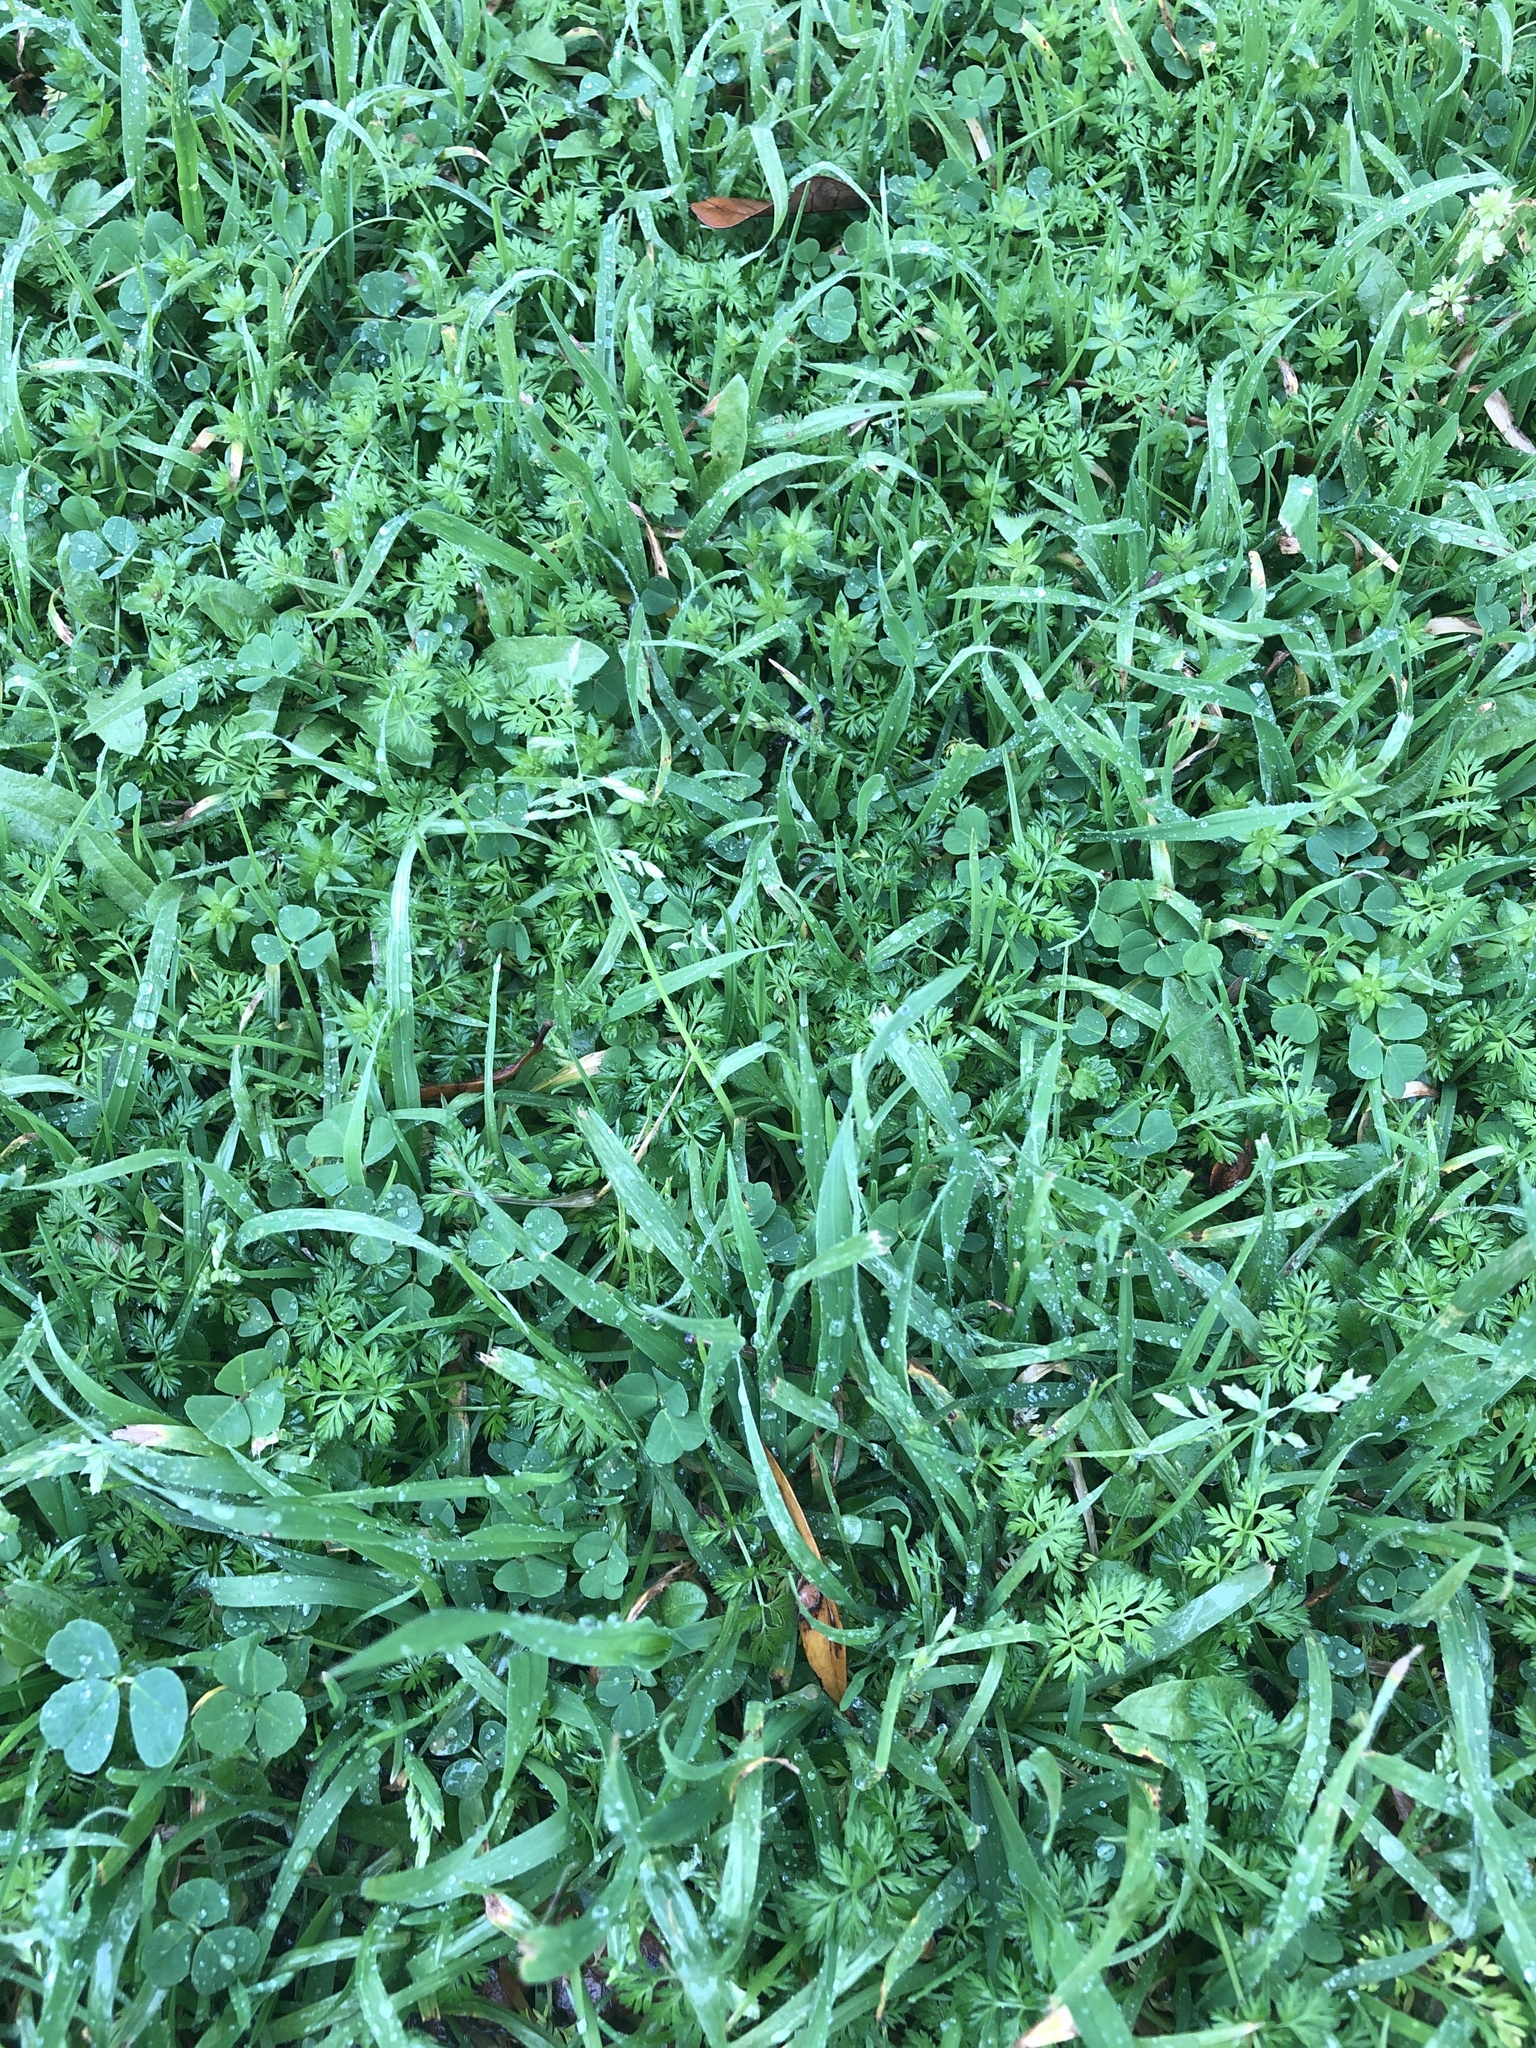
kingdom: Plantae
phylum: Tracheophyta
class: Liliopsida
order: Poales
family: Poaceae
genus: Poa
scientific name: Poa annua
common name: Annual bluegrass
